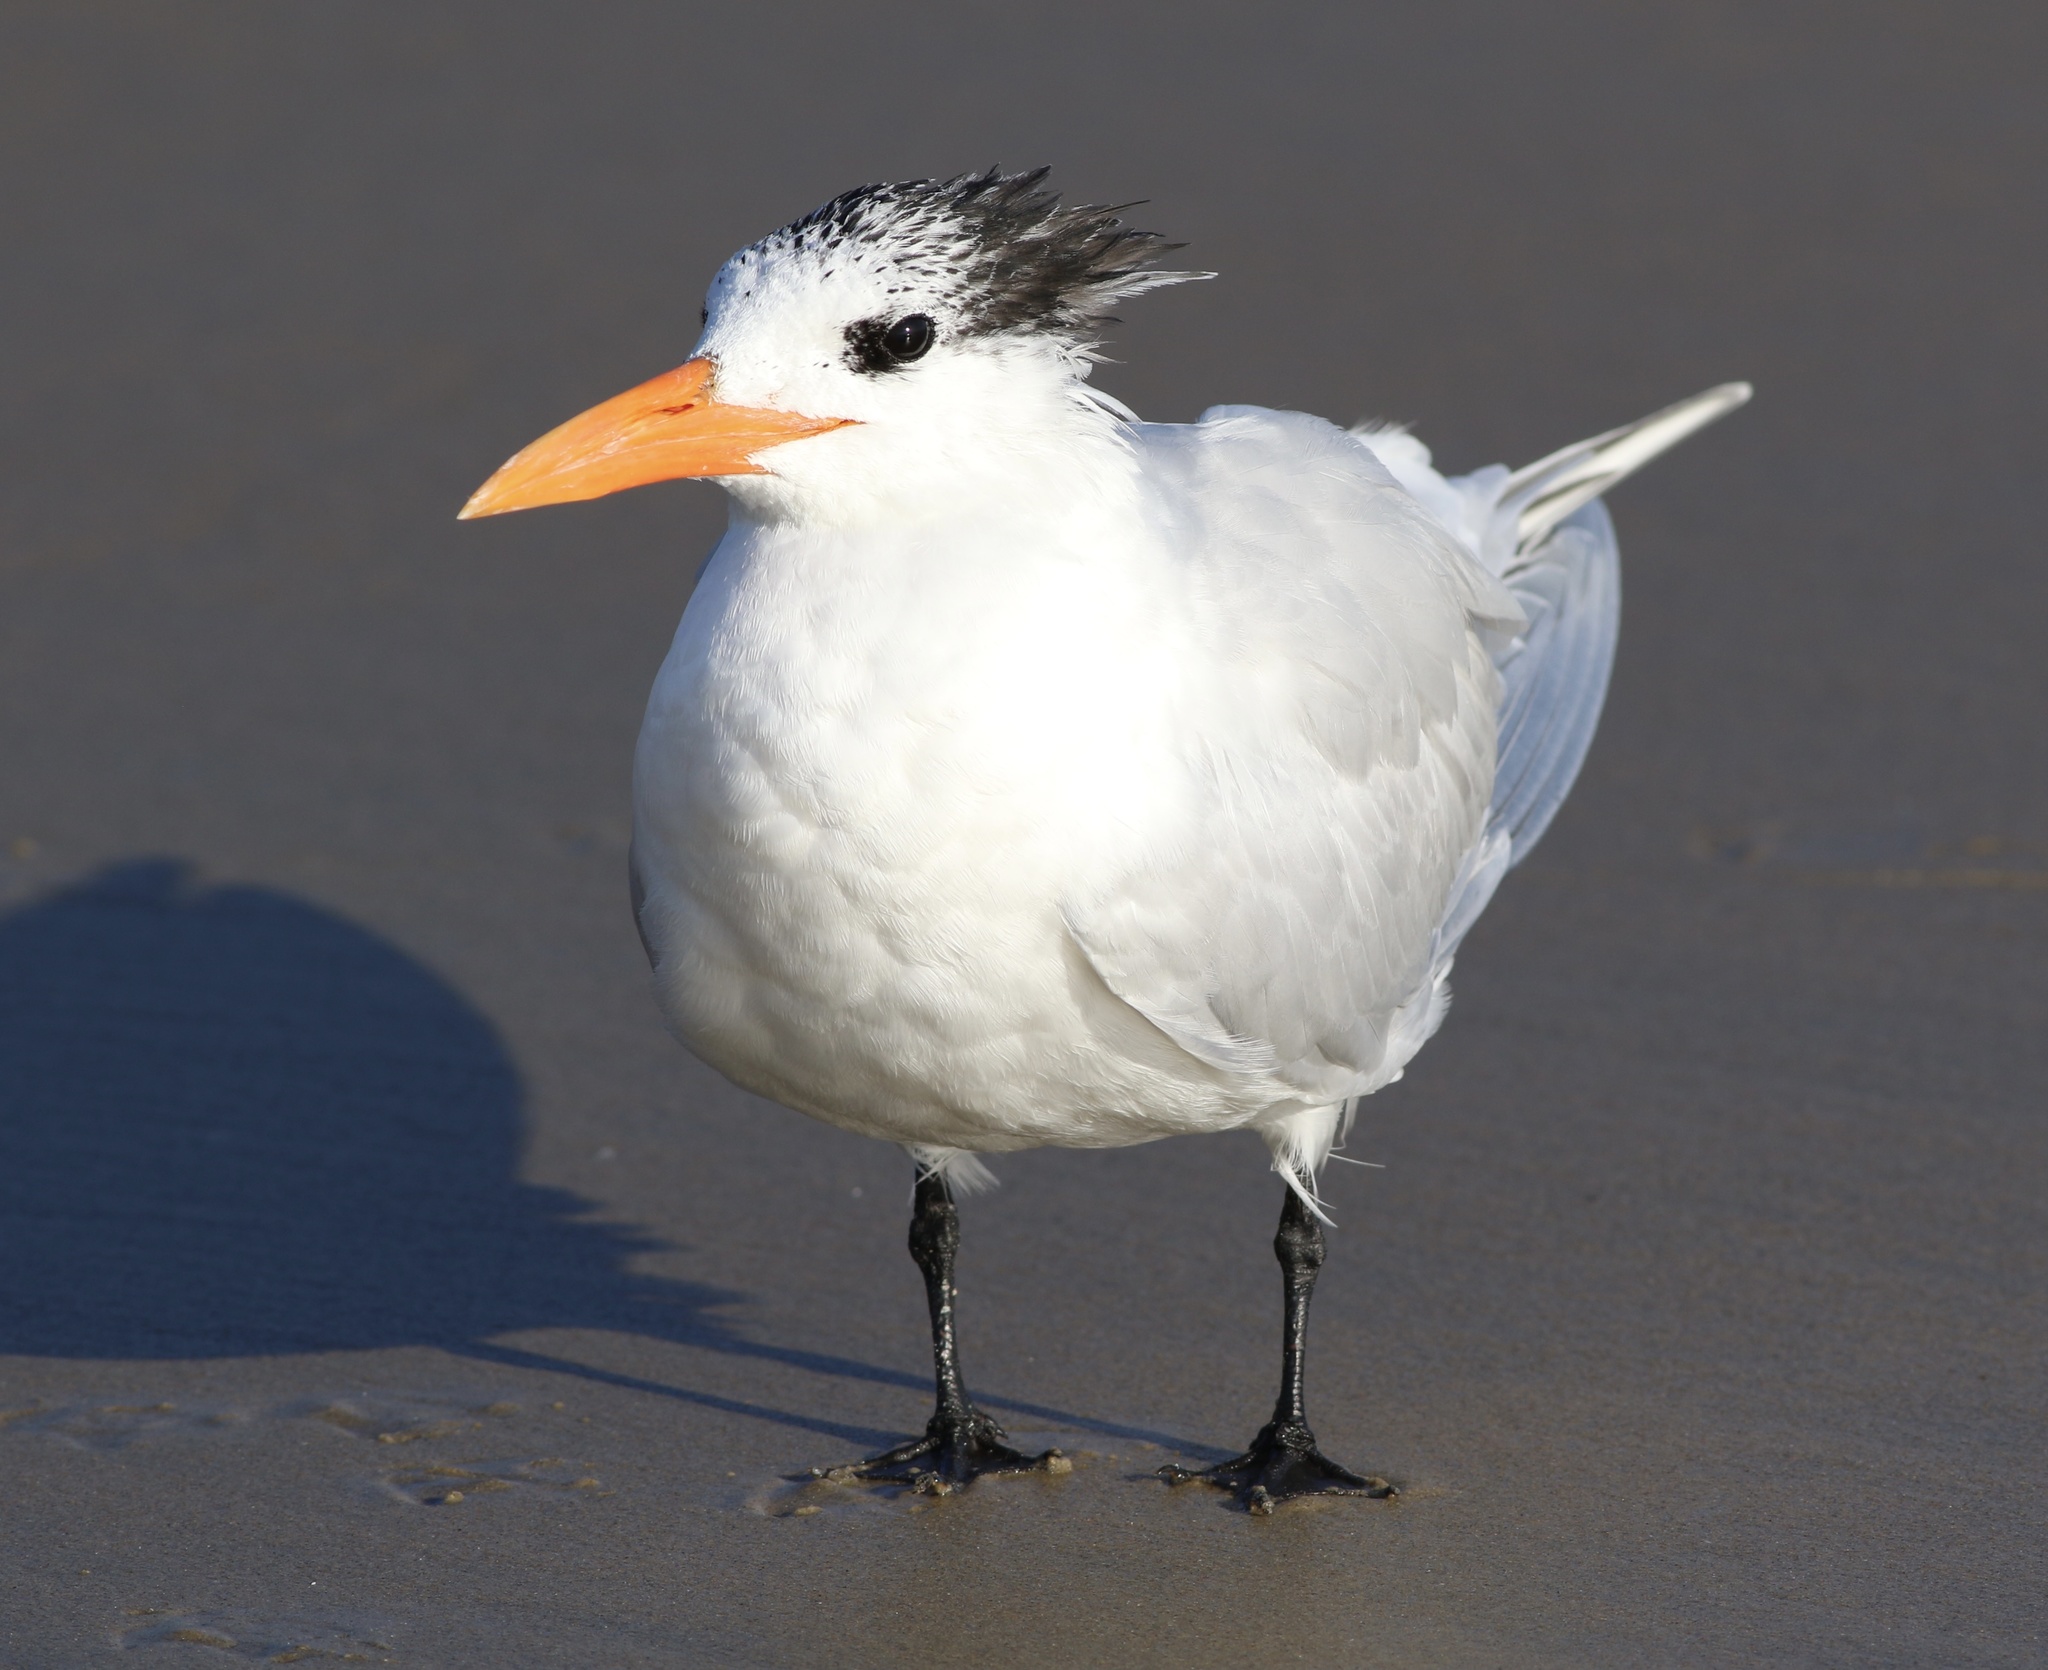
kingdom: Animalia
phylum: Chordata
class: Aves
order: Charadriiformes
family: Laridae
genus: Thalasseus
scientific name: Thalasseus maximus
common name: Royal tern
